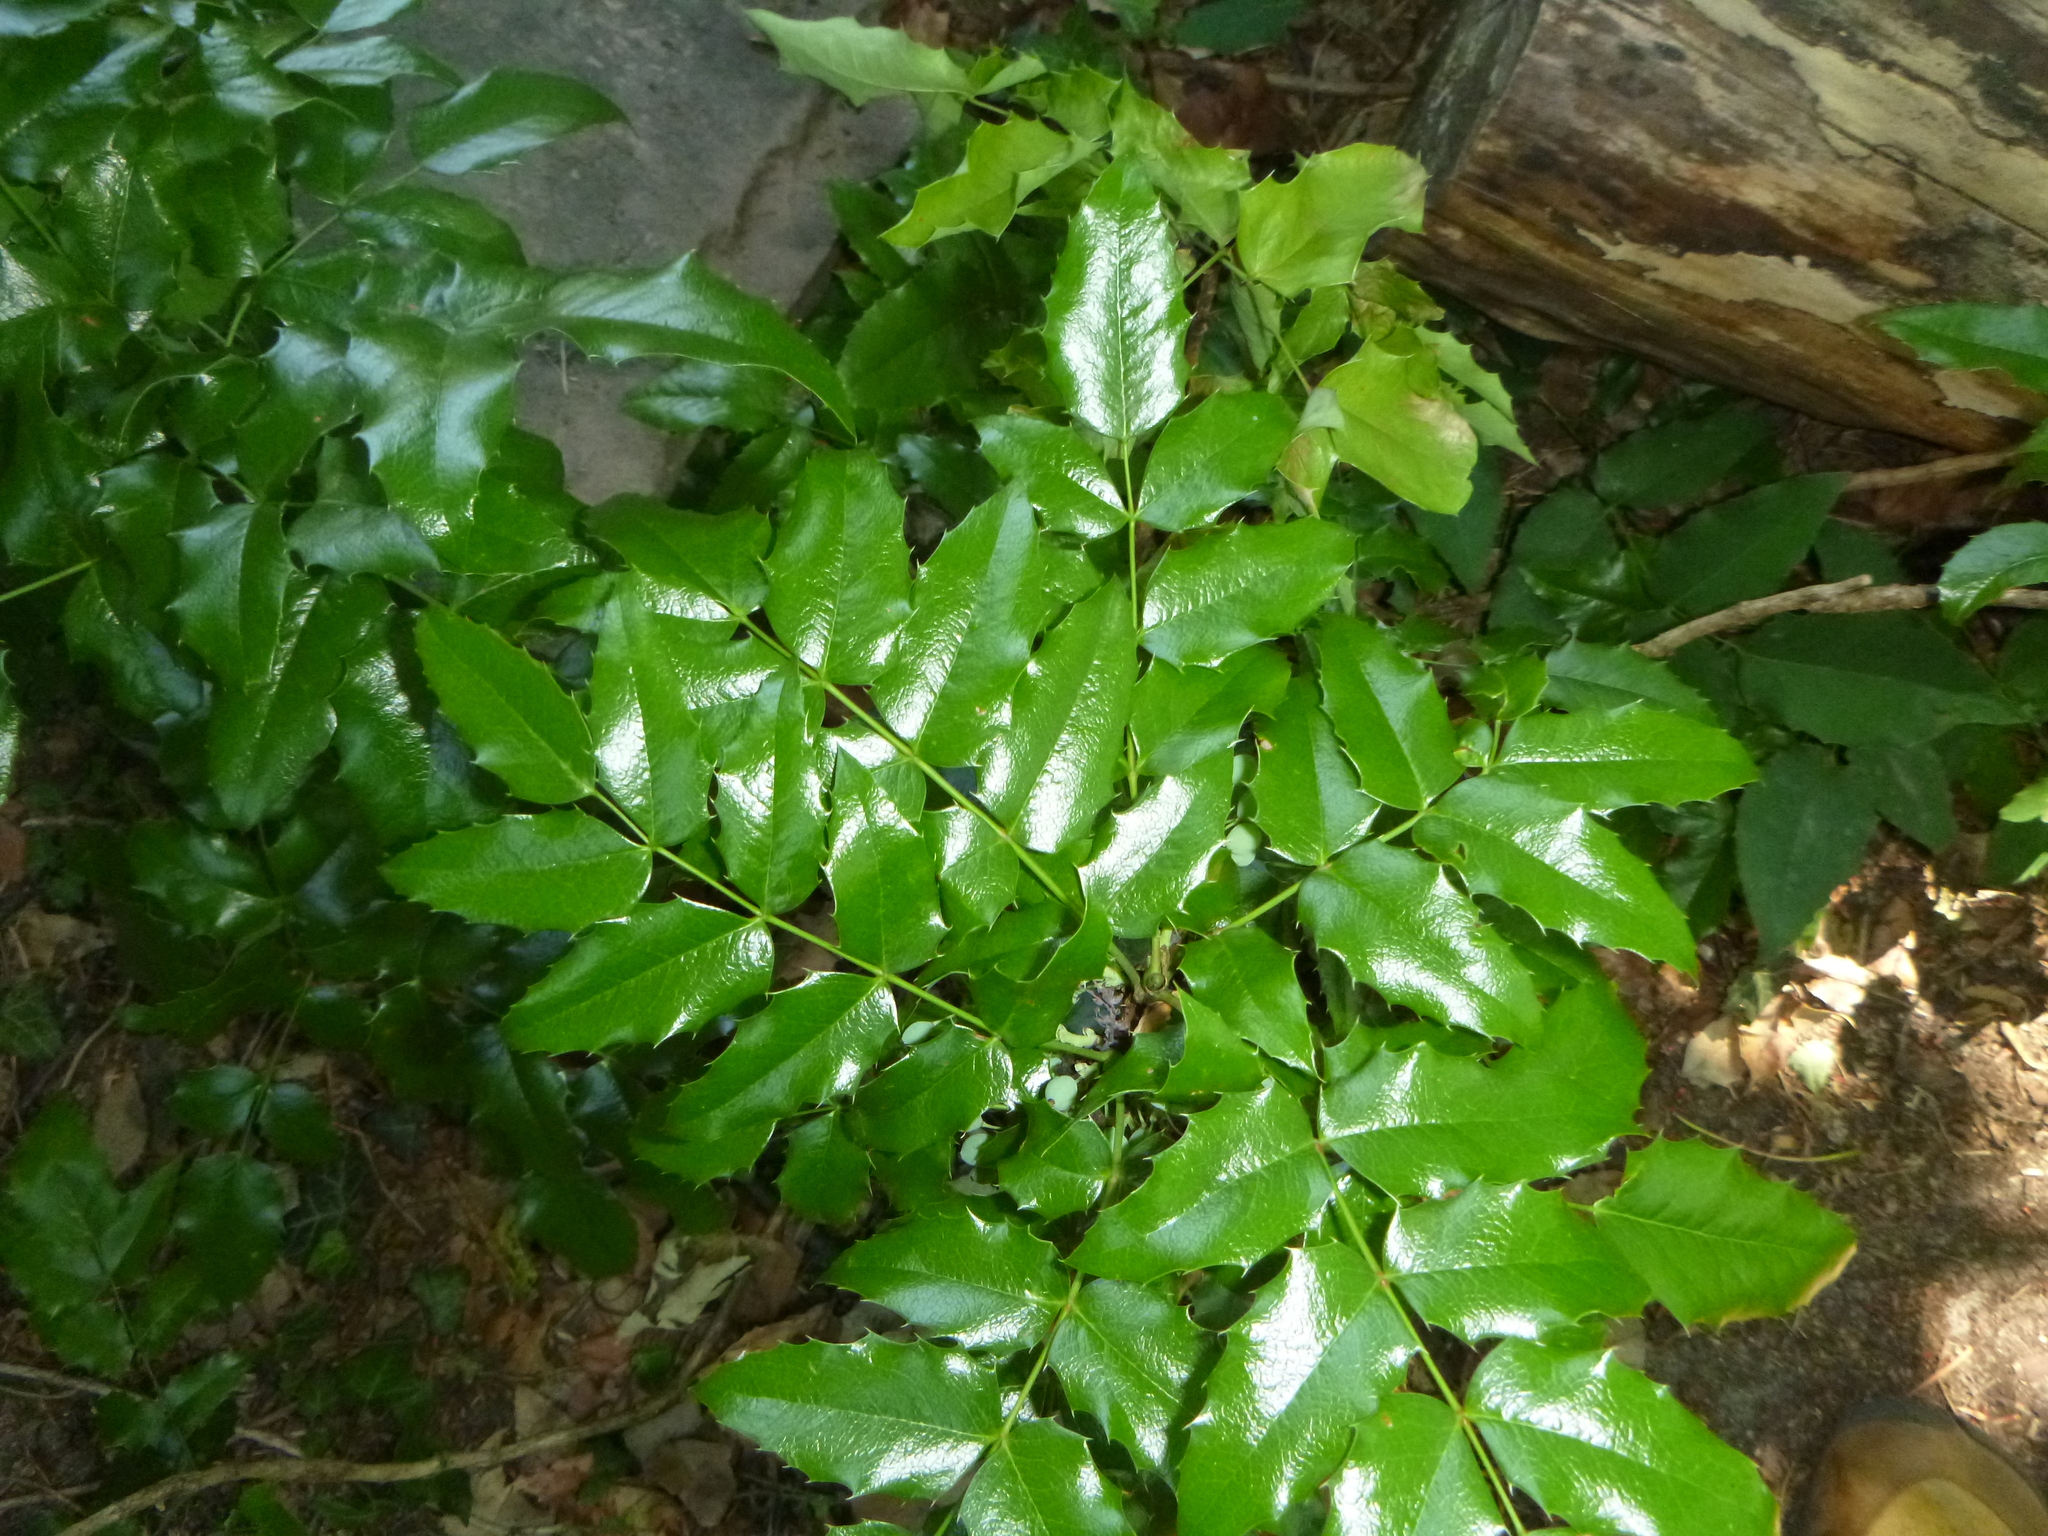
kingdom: Plantae
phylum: Tracheophyta
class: Magnoliopsida
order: Ranunculales
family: Berberidaceae
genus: Mahonia
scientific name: Mahonia aquifolium
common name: Oregon-grape
